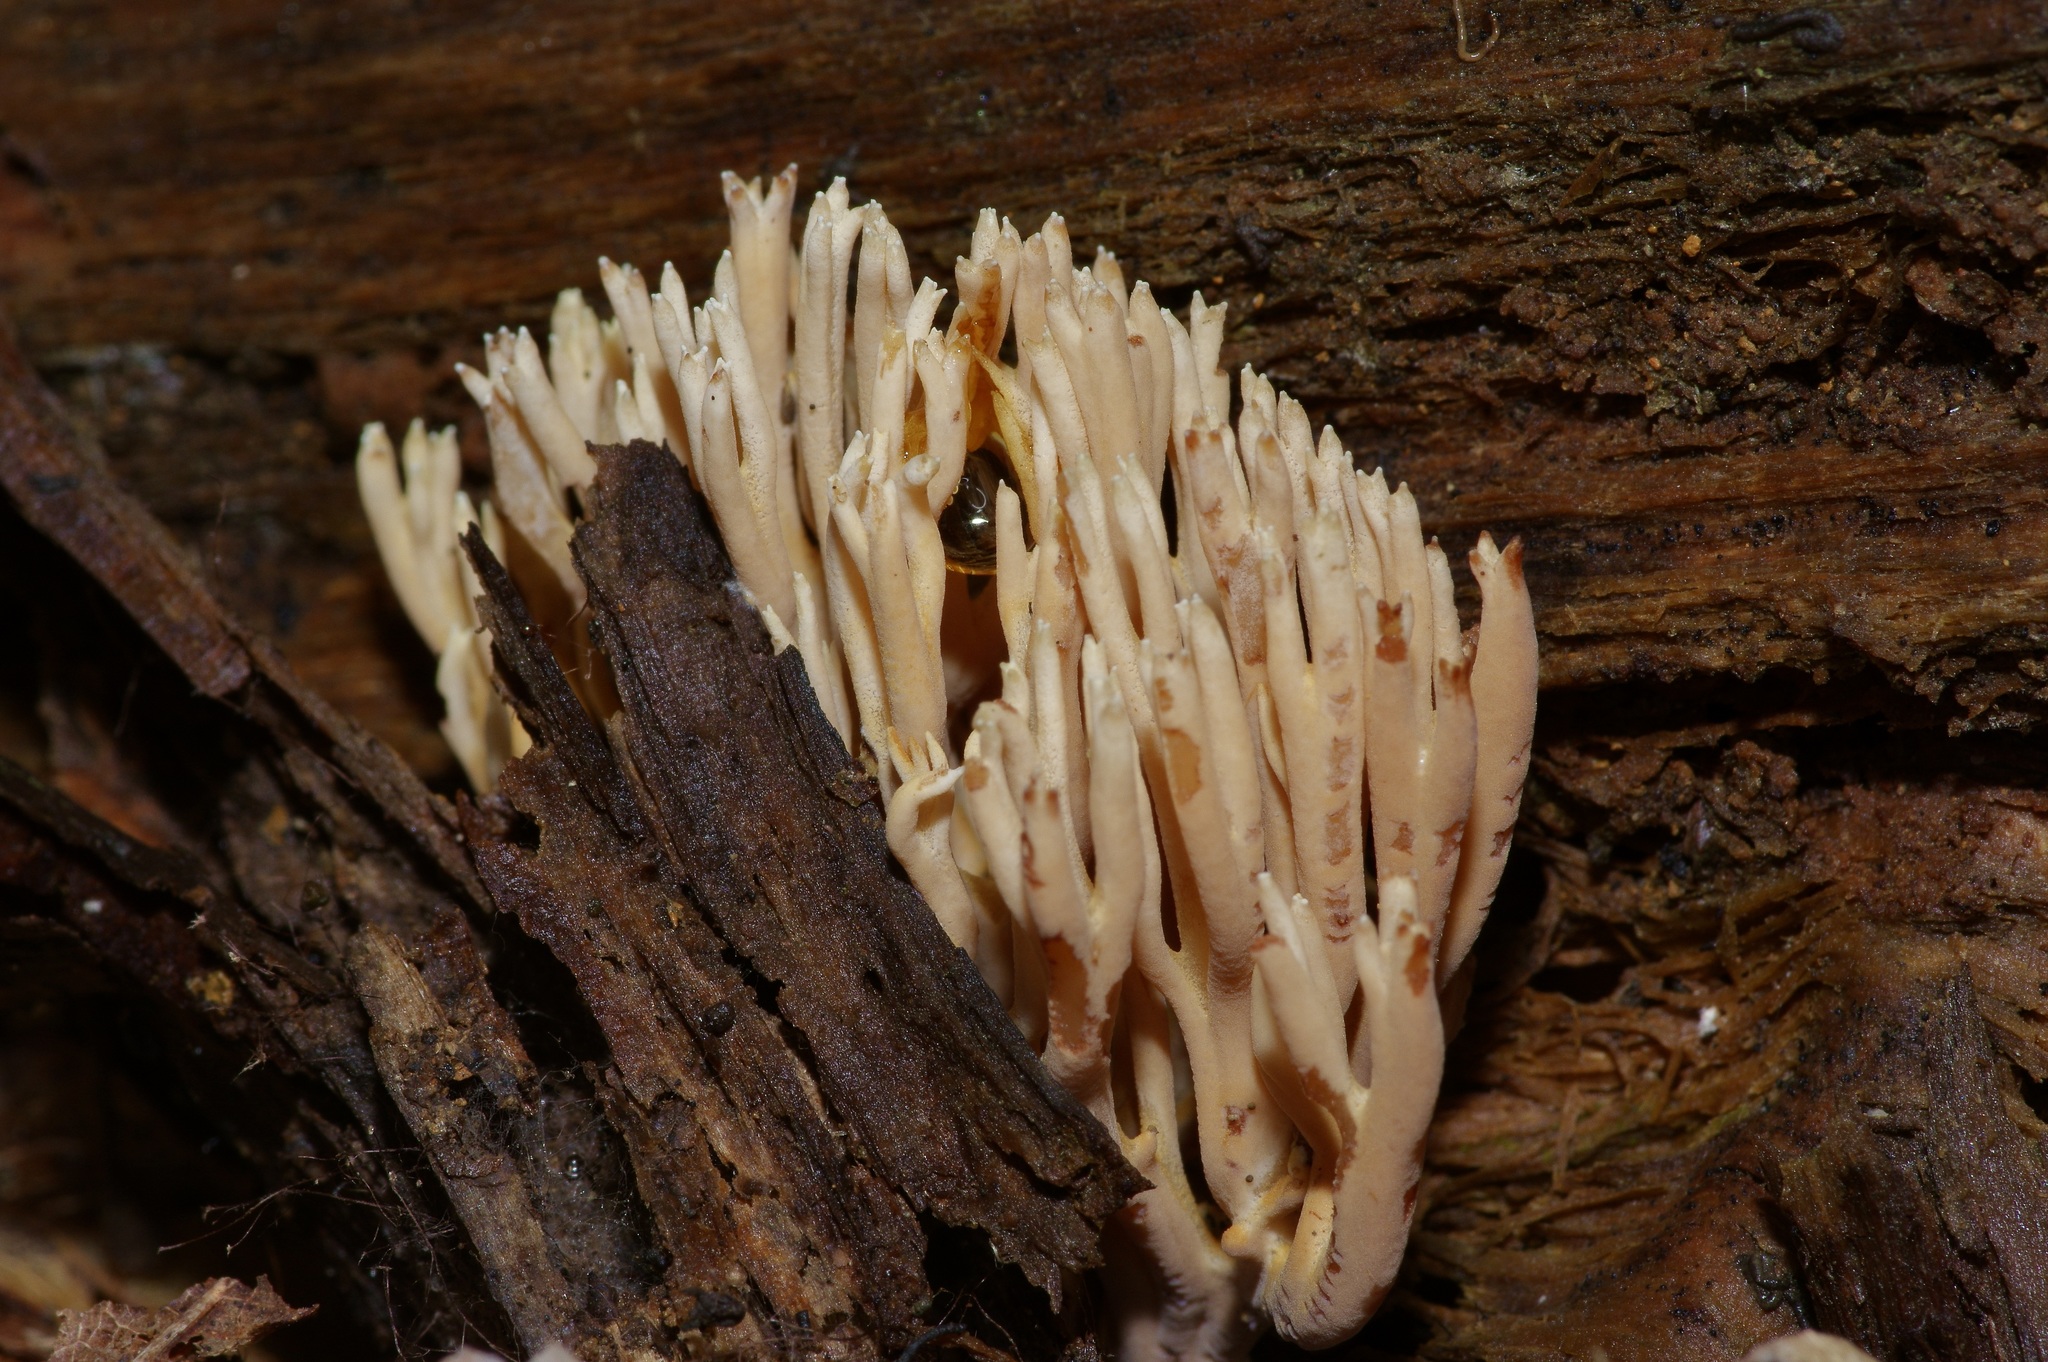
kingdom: Fungi
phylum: Basidiomycota
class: Agaricomycetes
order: Gomphales
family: Gomphaceae
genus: Ramaria
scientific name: Ramaria stricta
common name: Upright coral
